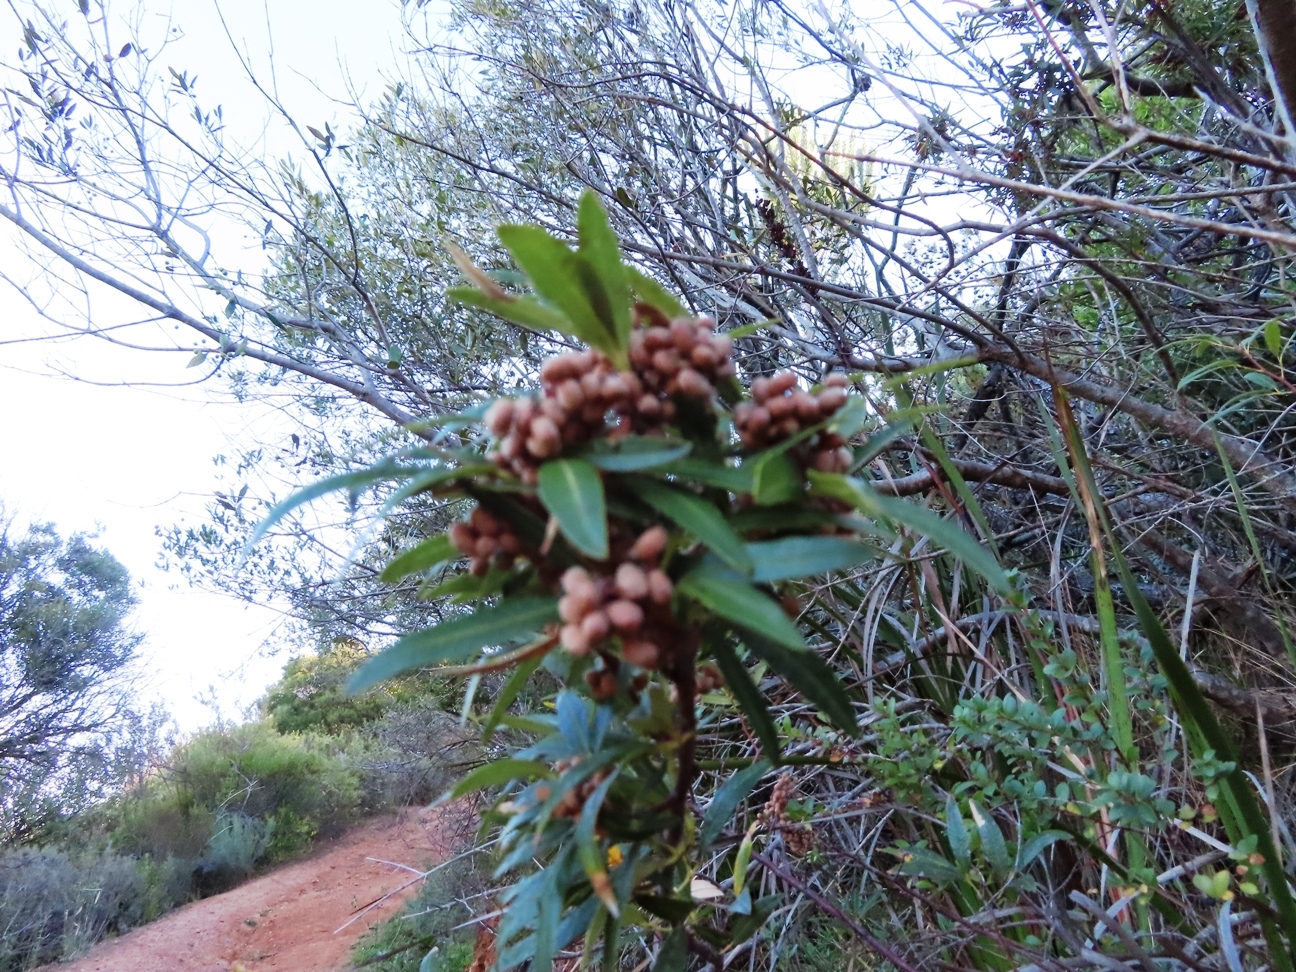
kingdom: Plantae
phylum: Tracheophyta
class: Magnoliopsida
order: Sapindales
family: Anacardiaceae
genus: Searsia
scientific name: Searsia angustifolia
